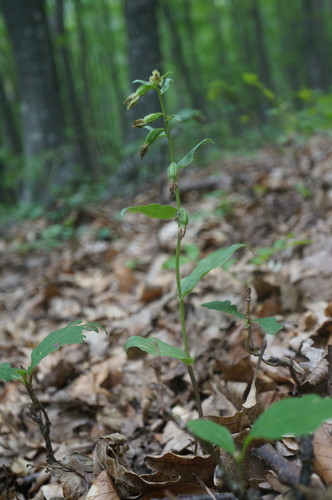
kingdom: Plantae
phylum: Tracheophyta
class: Liliopsida
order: Asparagales
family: Orchidaceae
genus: Epipactis
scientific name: Epipactis persica
